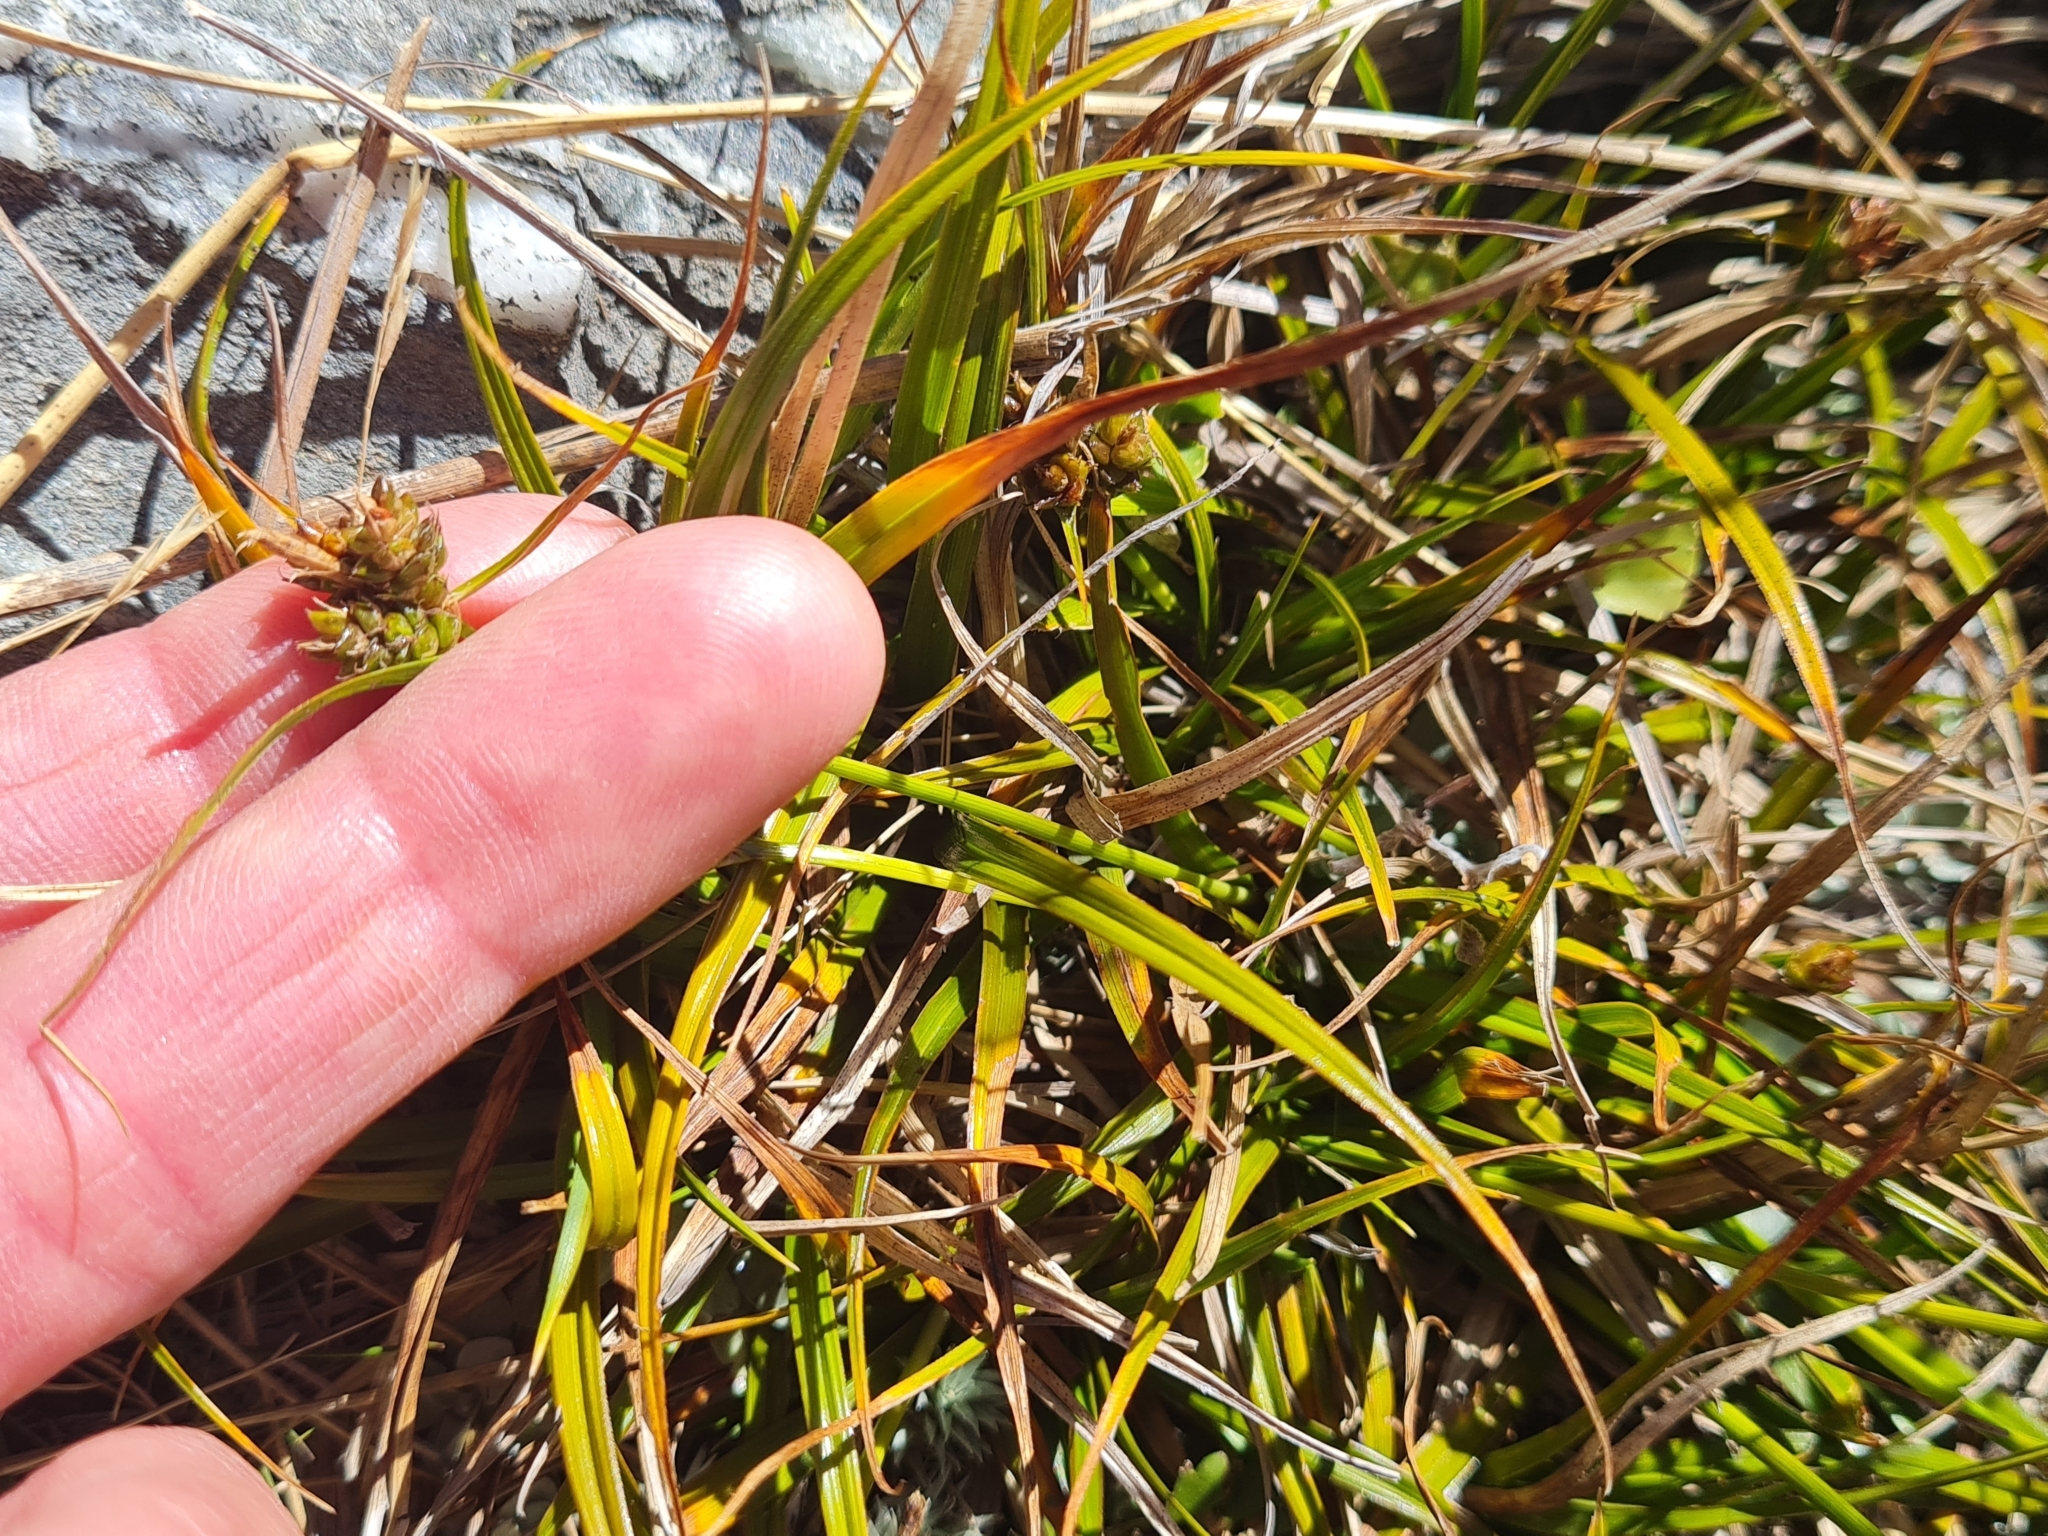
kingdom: Plantae
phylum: Tracheophyta
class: Liliopsida
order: Poales
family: Cyperaceae
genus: Carex
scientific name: Carex wakatipu
